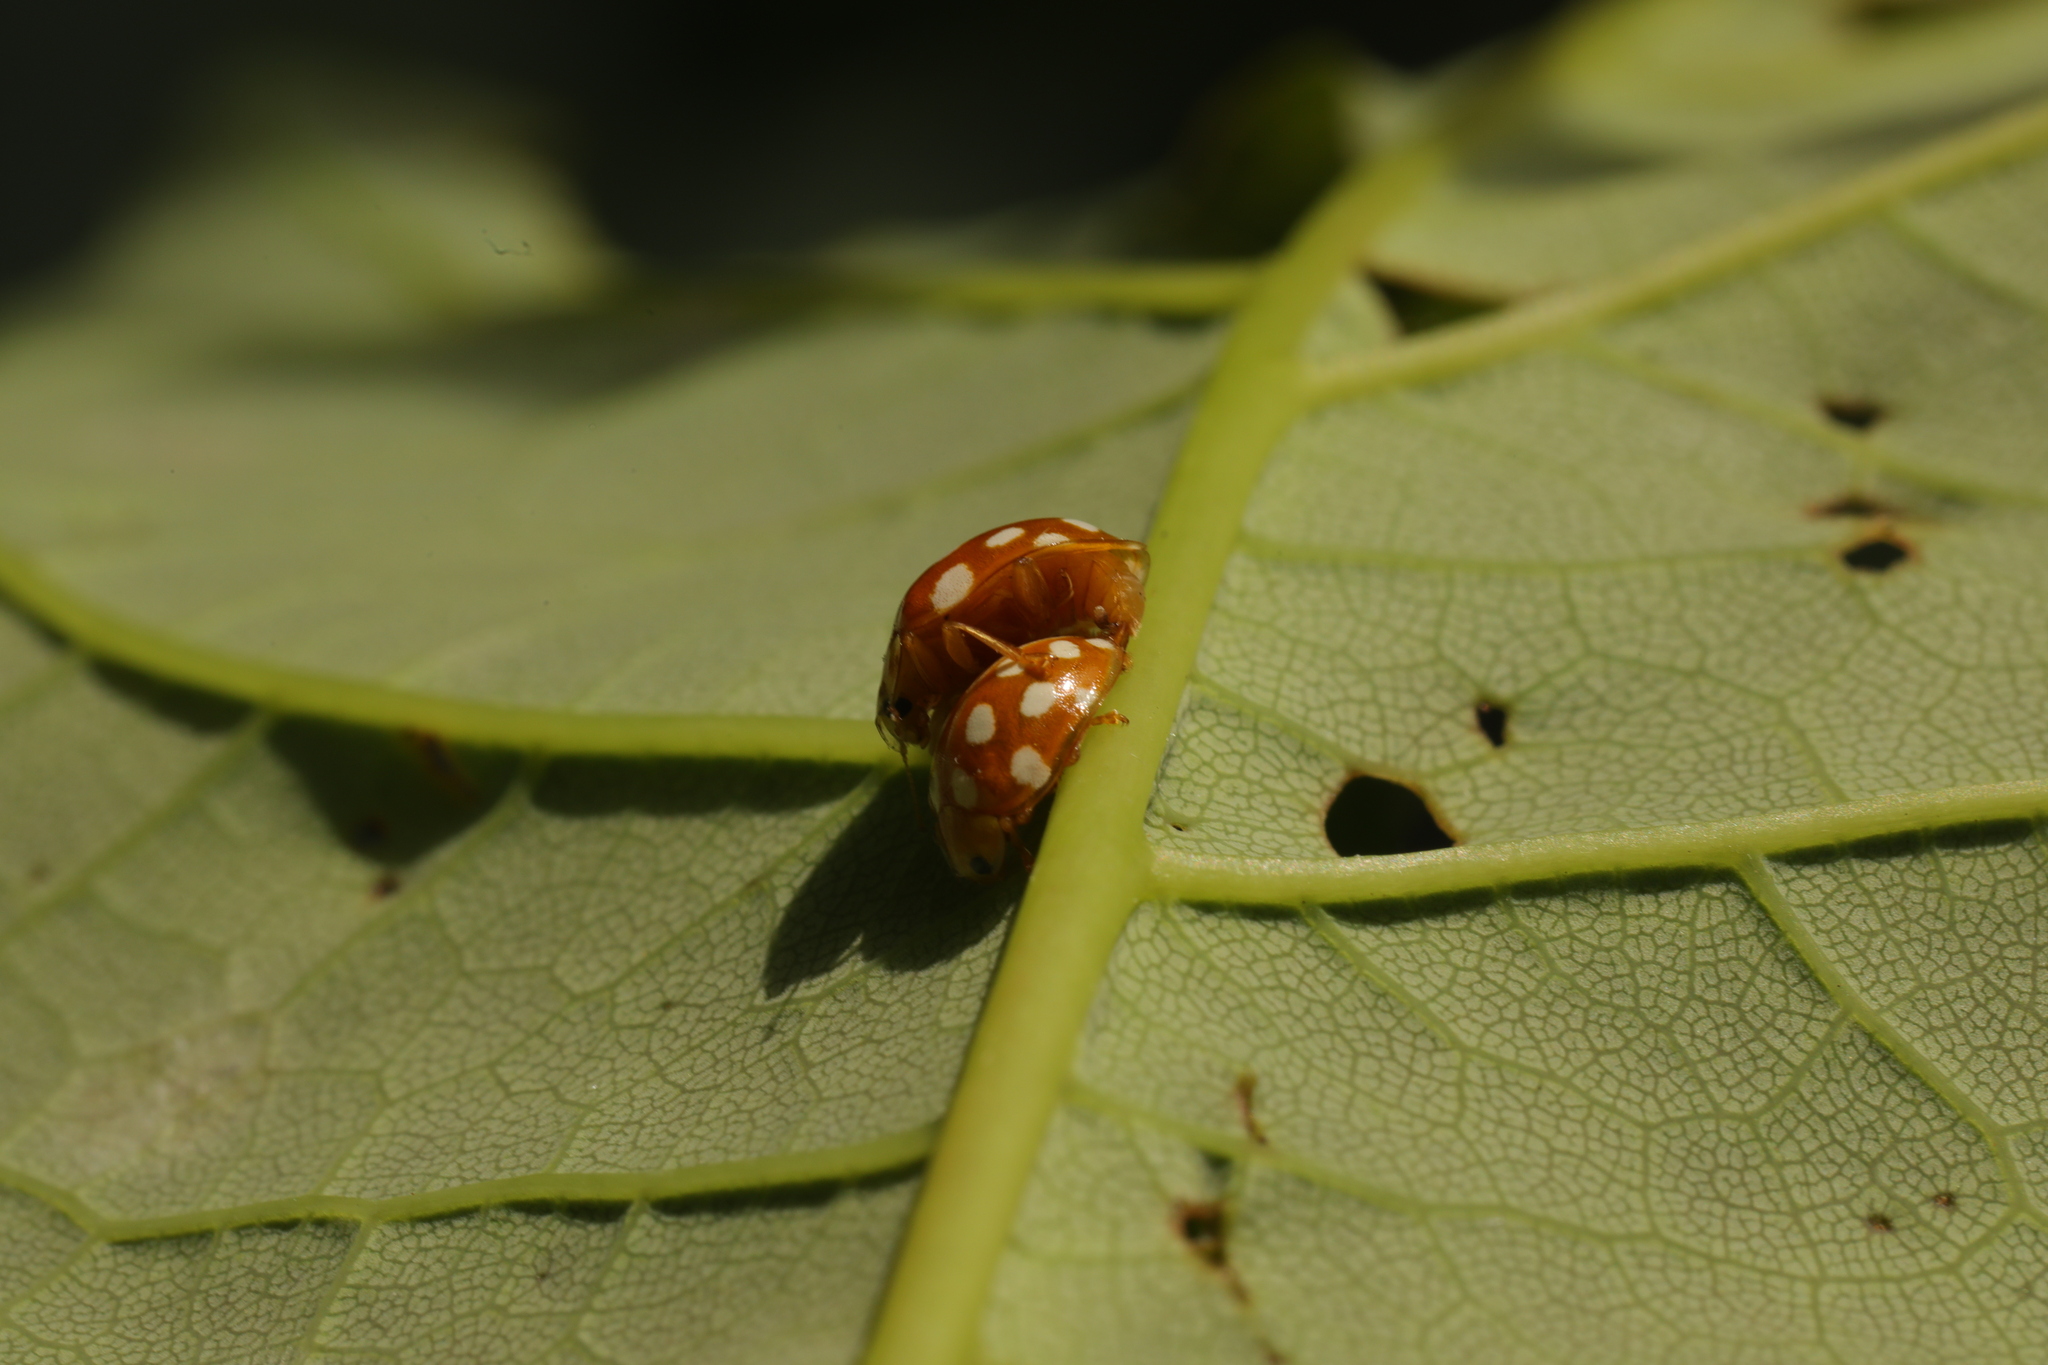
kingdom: Animalia
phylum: Arthropoda
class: Insecta
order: Coleoptera
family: Coccinellidae
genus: Halyzia
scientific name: Halyzia sedecimguttata
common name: Orange ladybird
